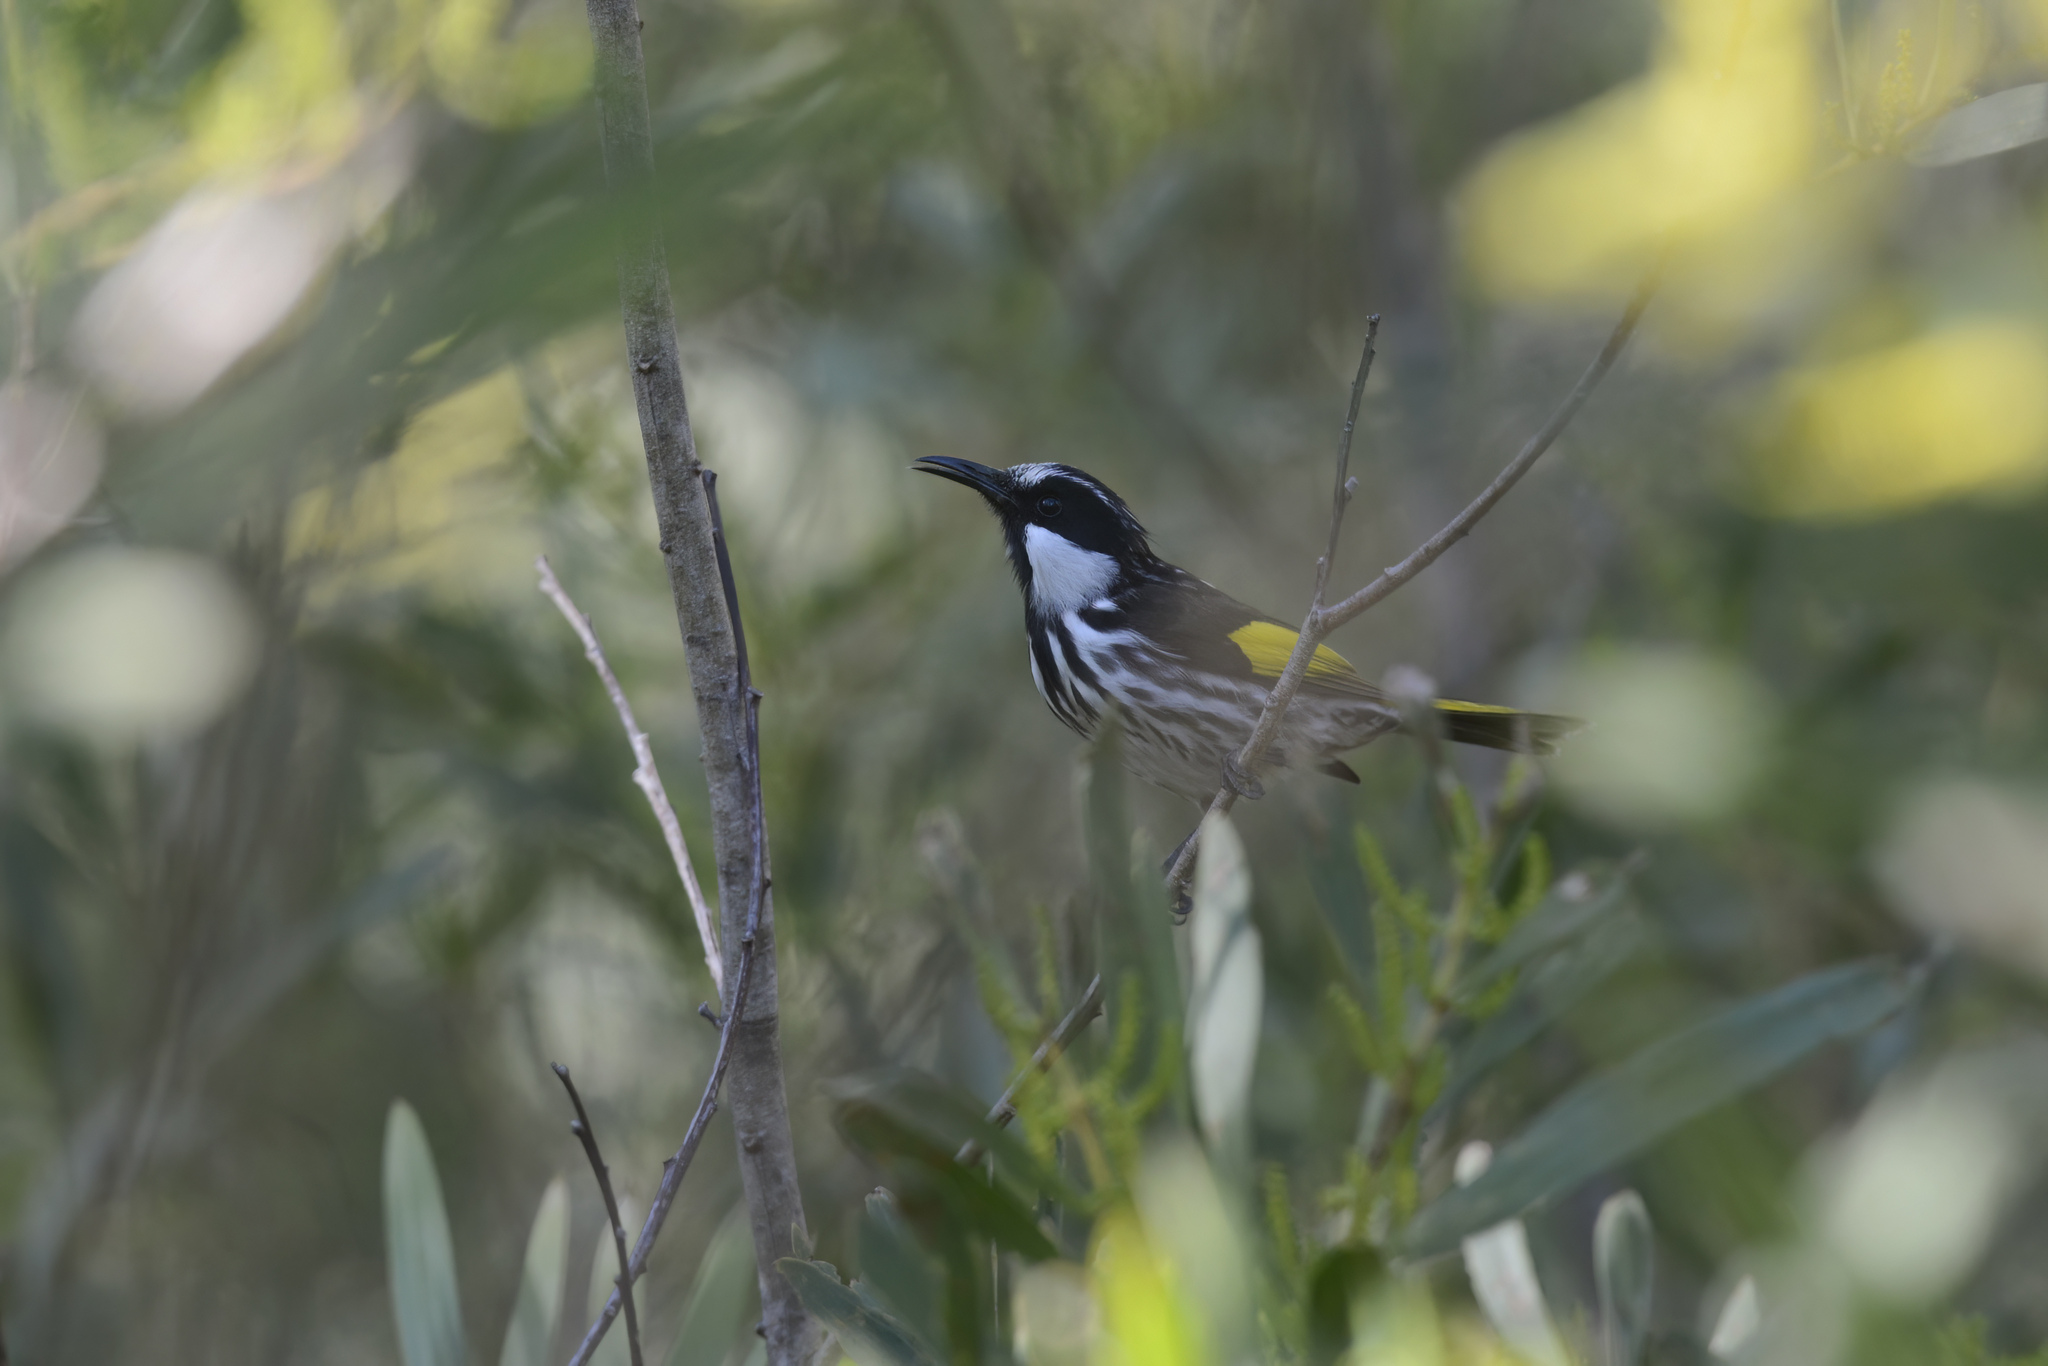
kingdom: Animalia
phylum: Chordata
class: Aves
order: Passeriformes
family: Meliphagidae
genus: Phylidonyris
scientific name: Phylidonyris niger
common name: White-cheeked honeyeater
